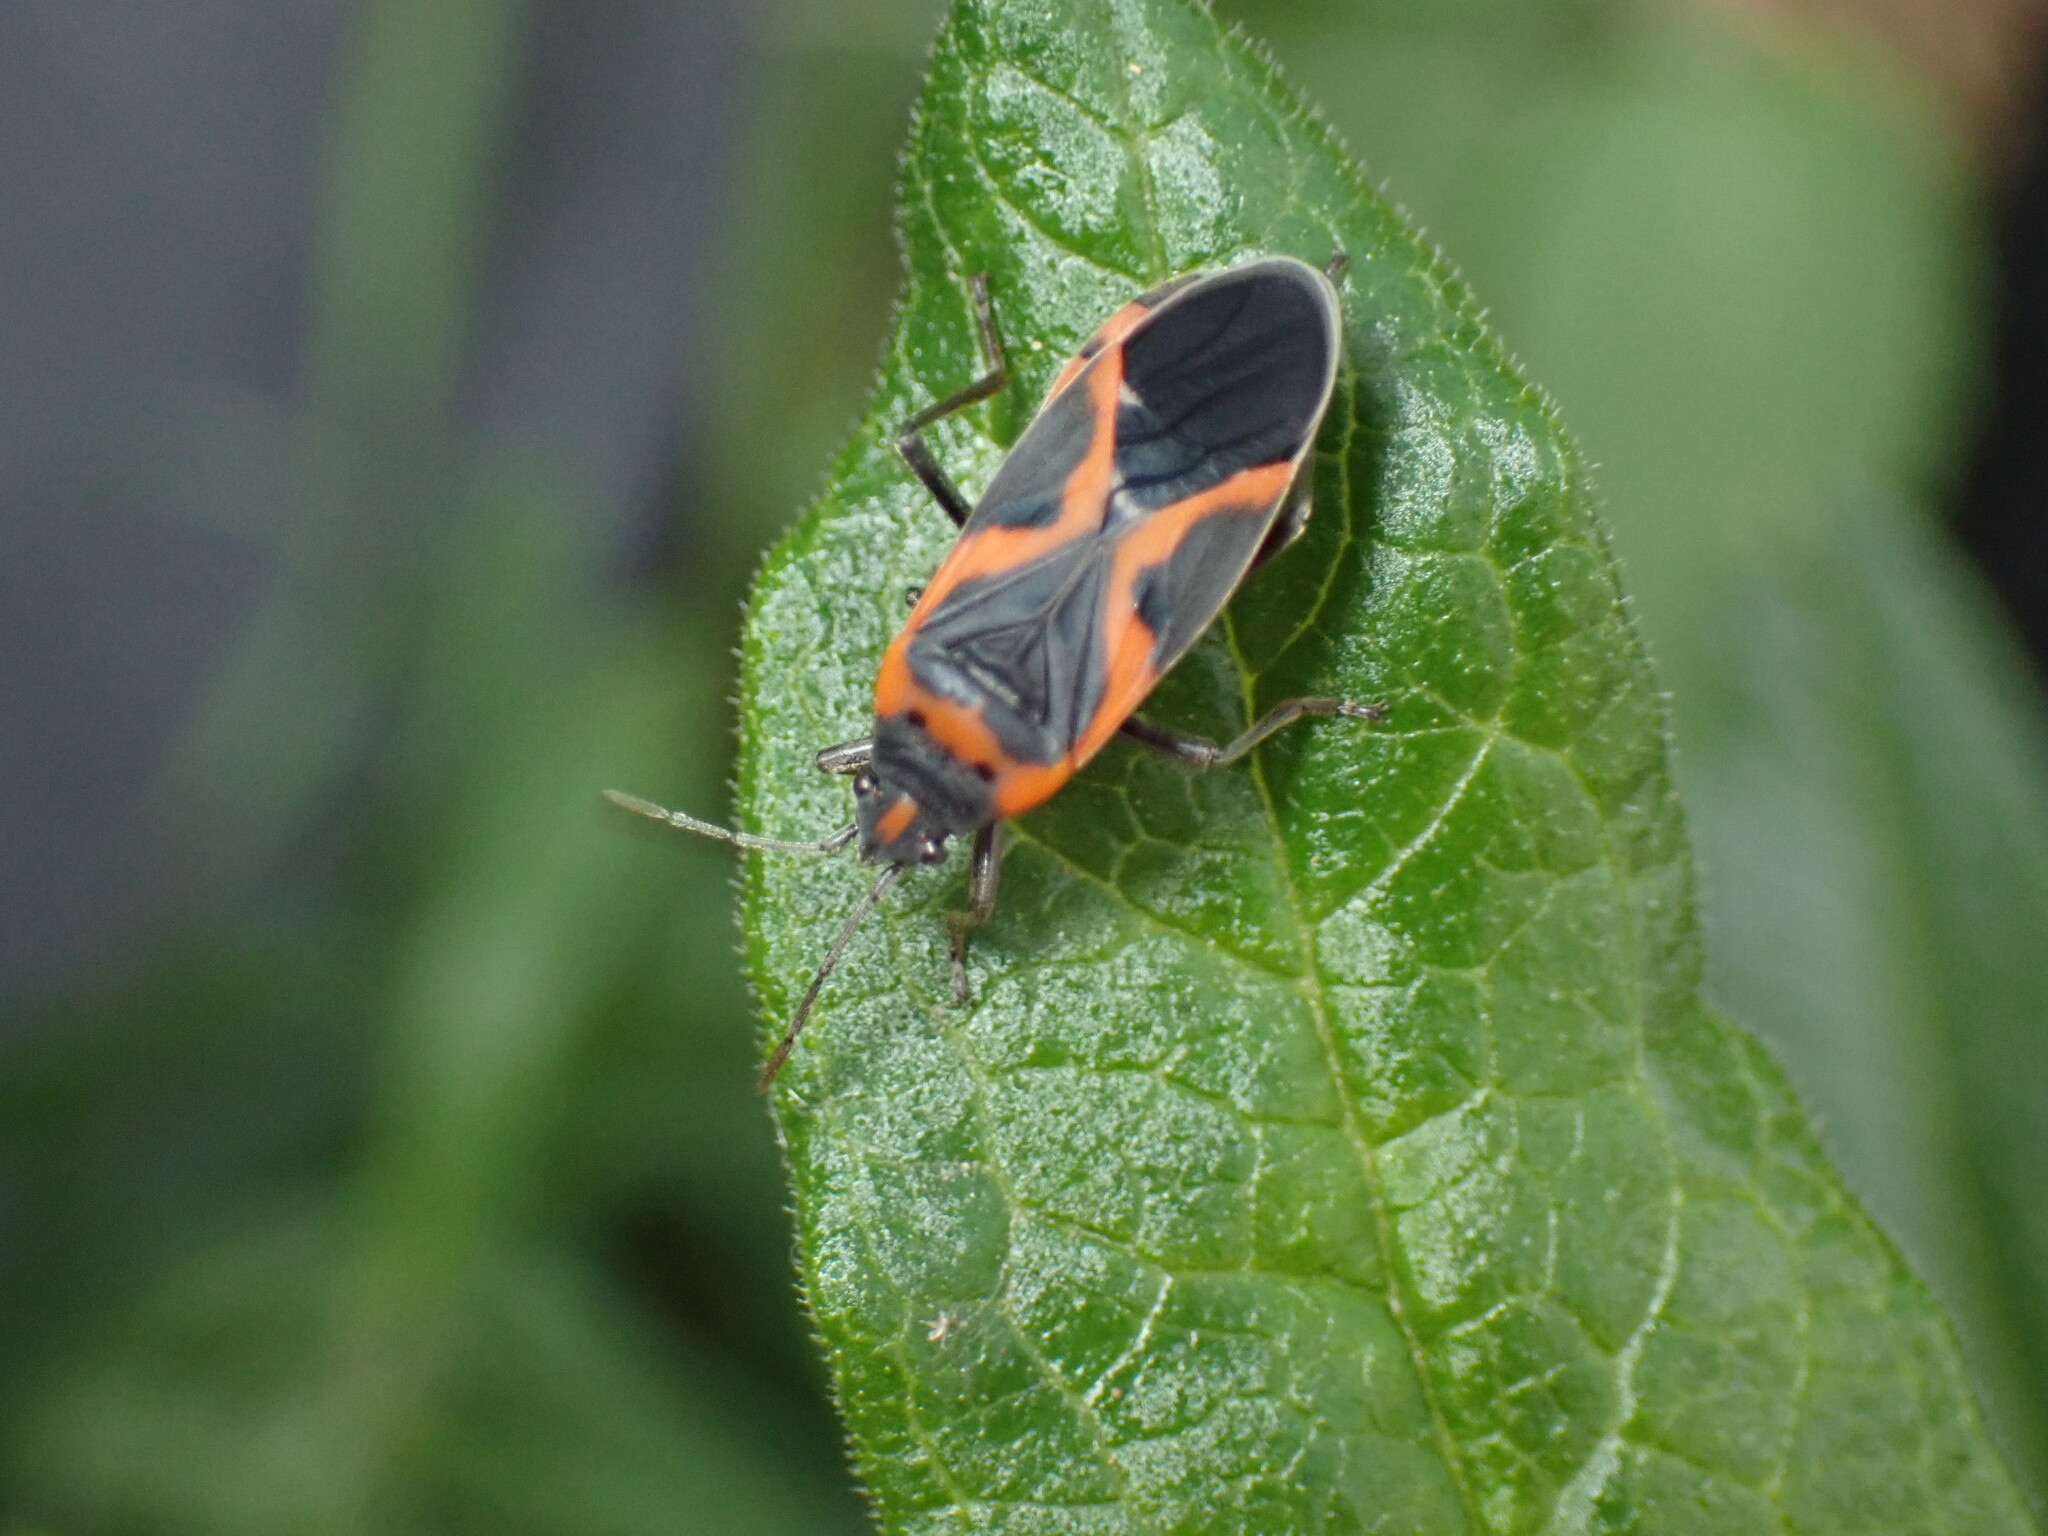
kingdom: Animalia
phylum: Arthropoda
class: Insecta
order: Hemiptera
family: Lygaeidae
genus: Lygaeus
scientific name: Lygaeus kalmii
